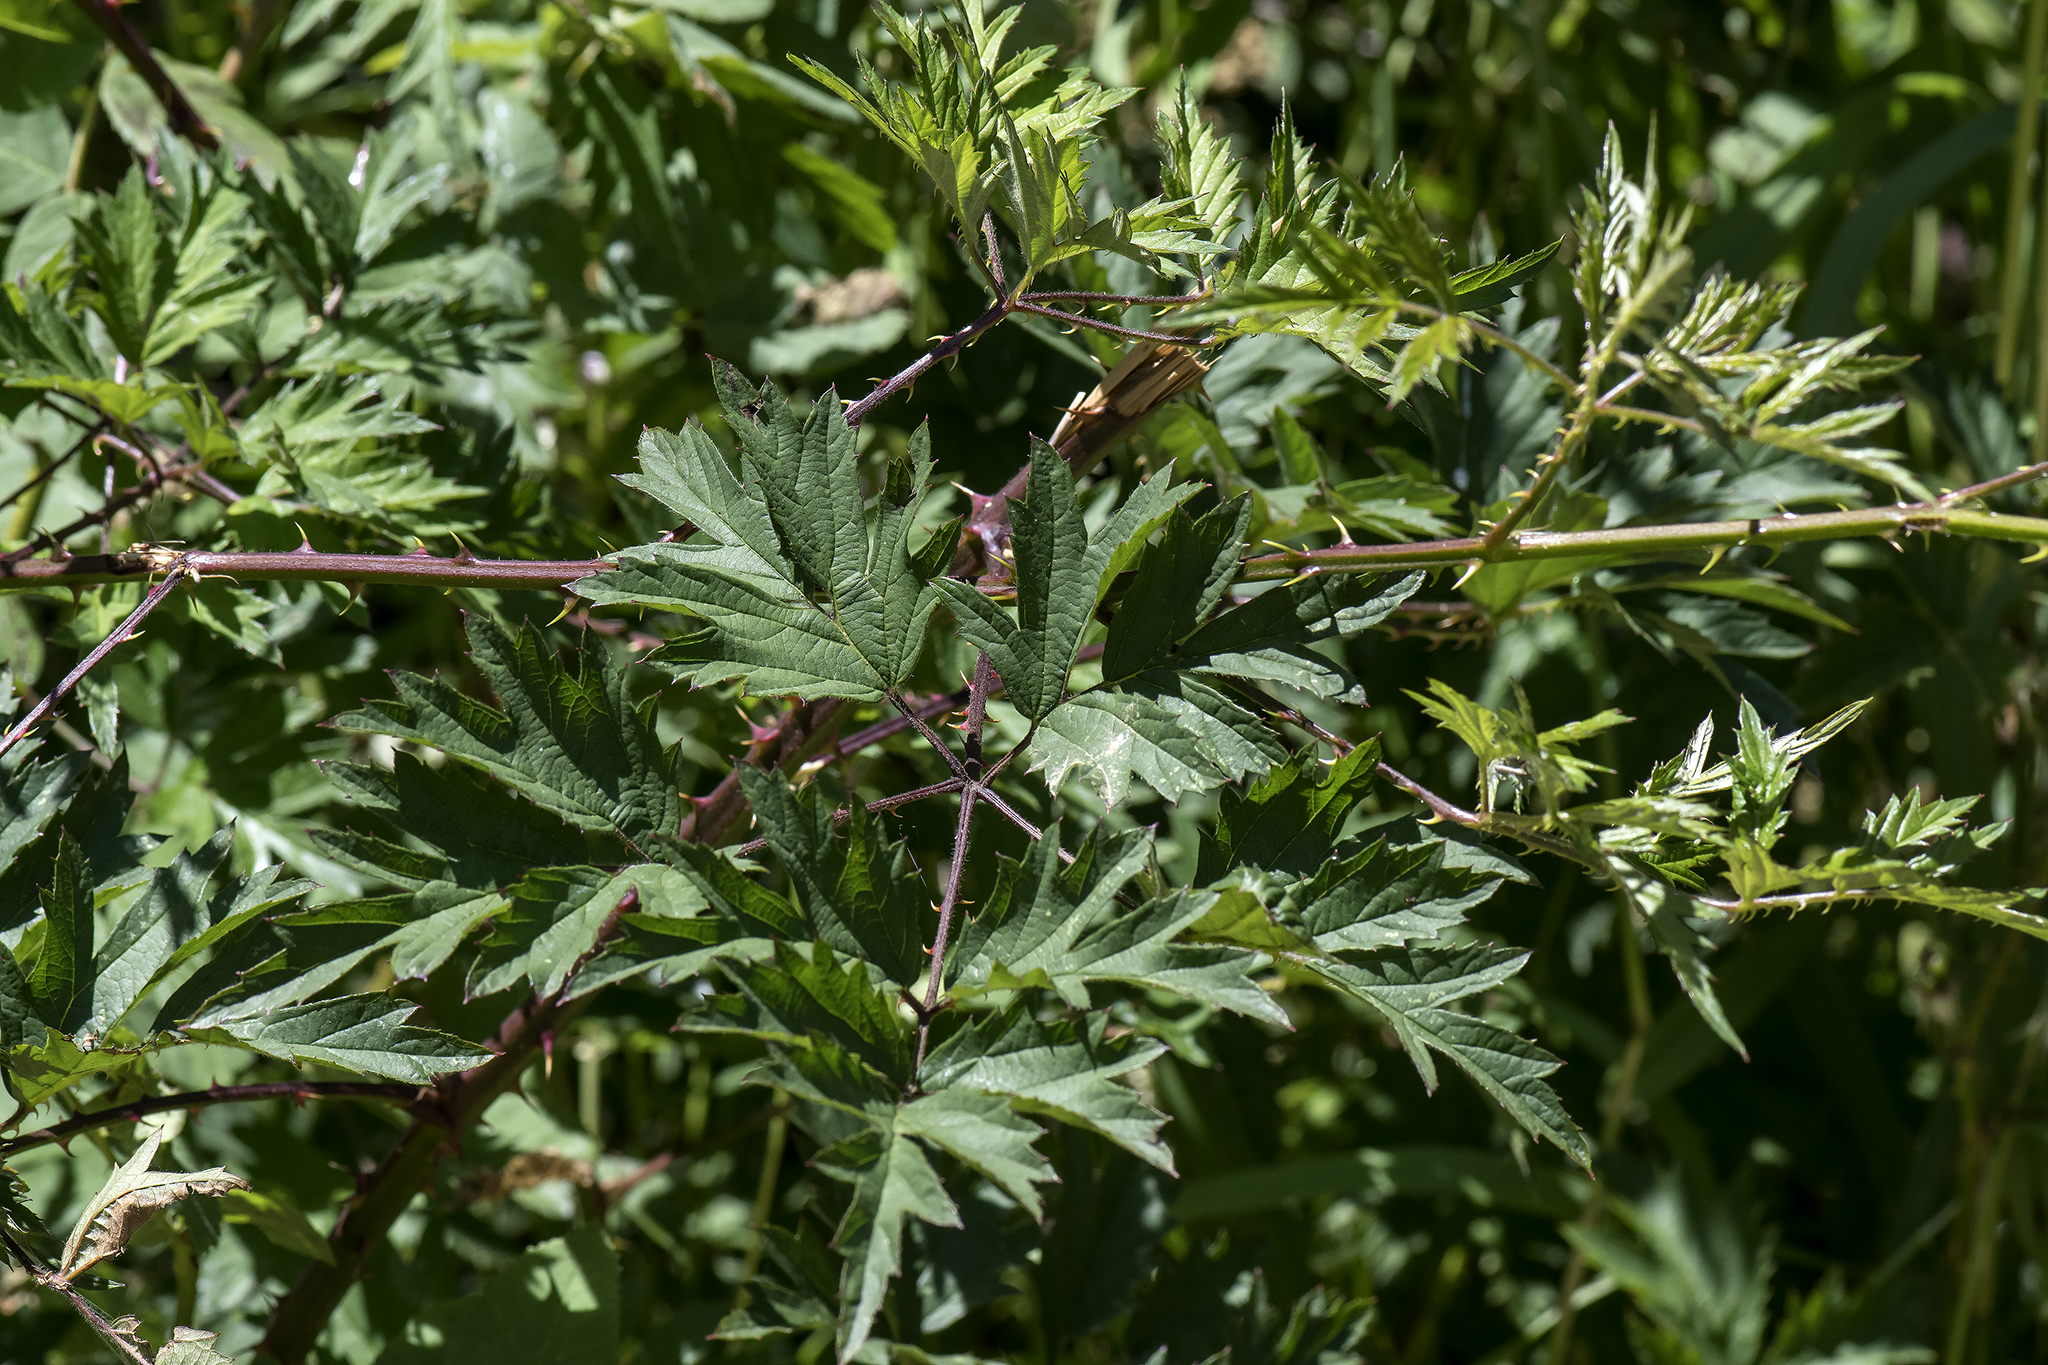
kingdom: Plantae
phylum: Tracheophyta
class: Magnoliopsida
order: Rosales
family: Rosaceae
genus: Rubus
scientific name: Rubus laciniatus
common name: Evergreen blackberry
